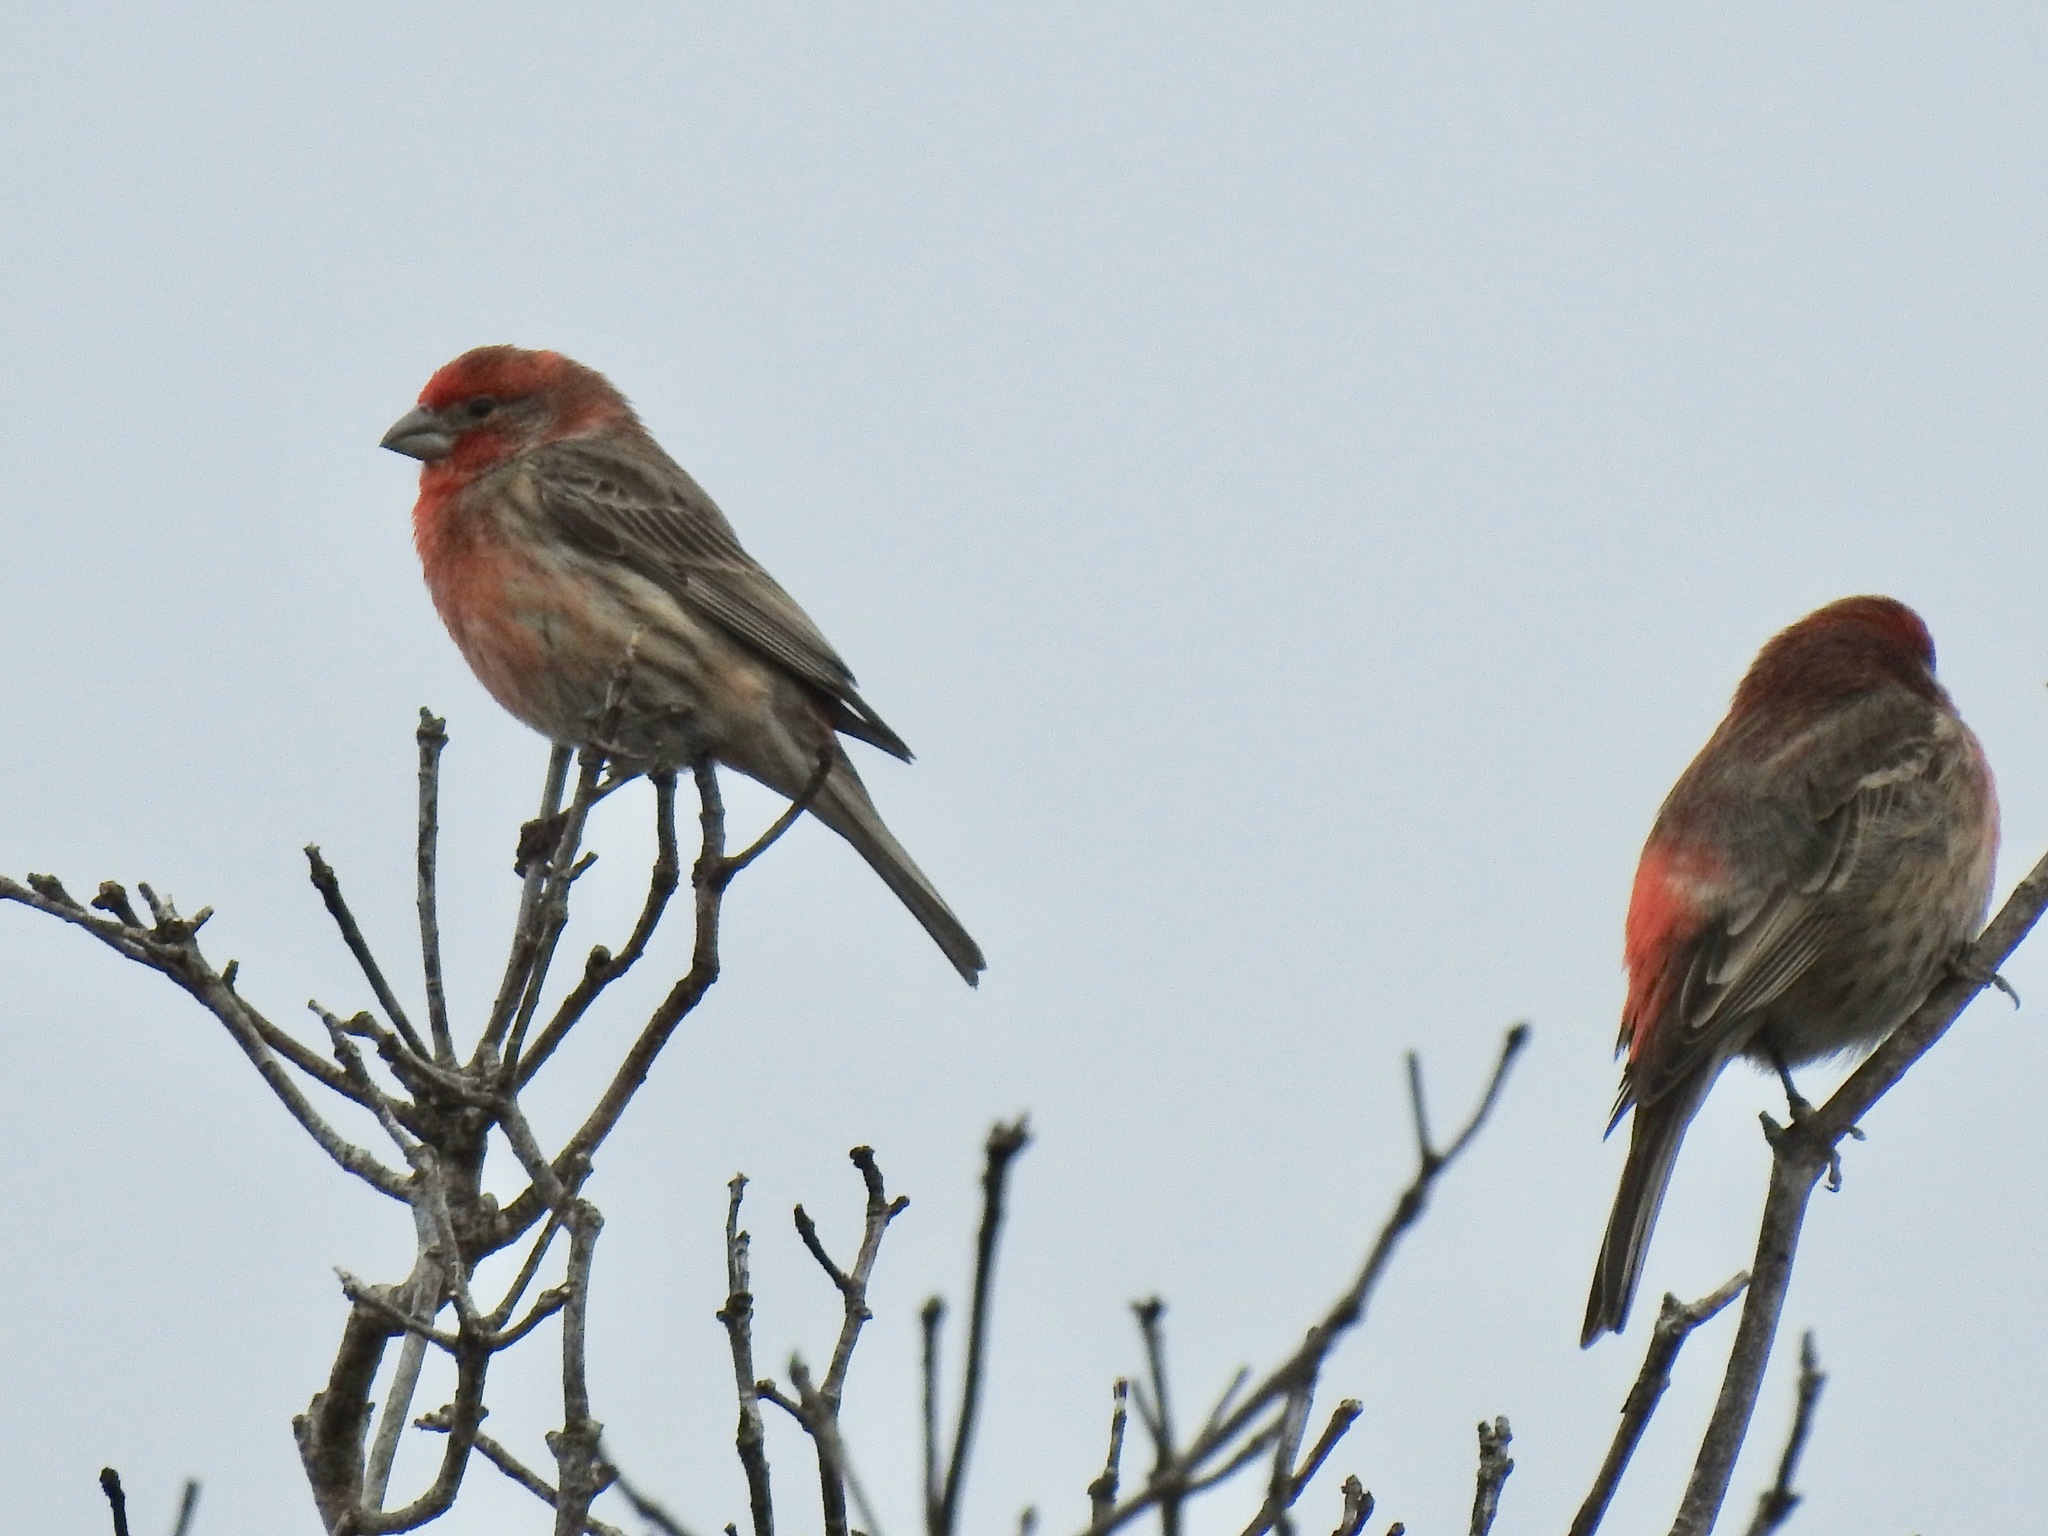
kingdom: Animalia
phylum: Chordata
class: Aves
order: Passeriformes
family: Fringillidae
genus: Haemorhous
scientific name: Haemorhous mexicanus
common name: House finch
